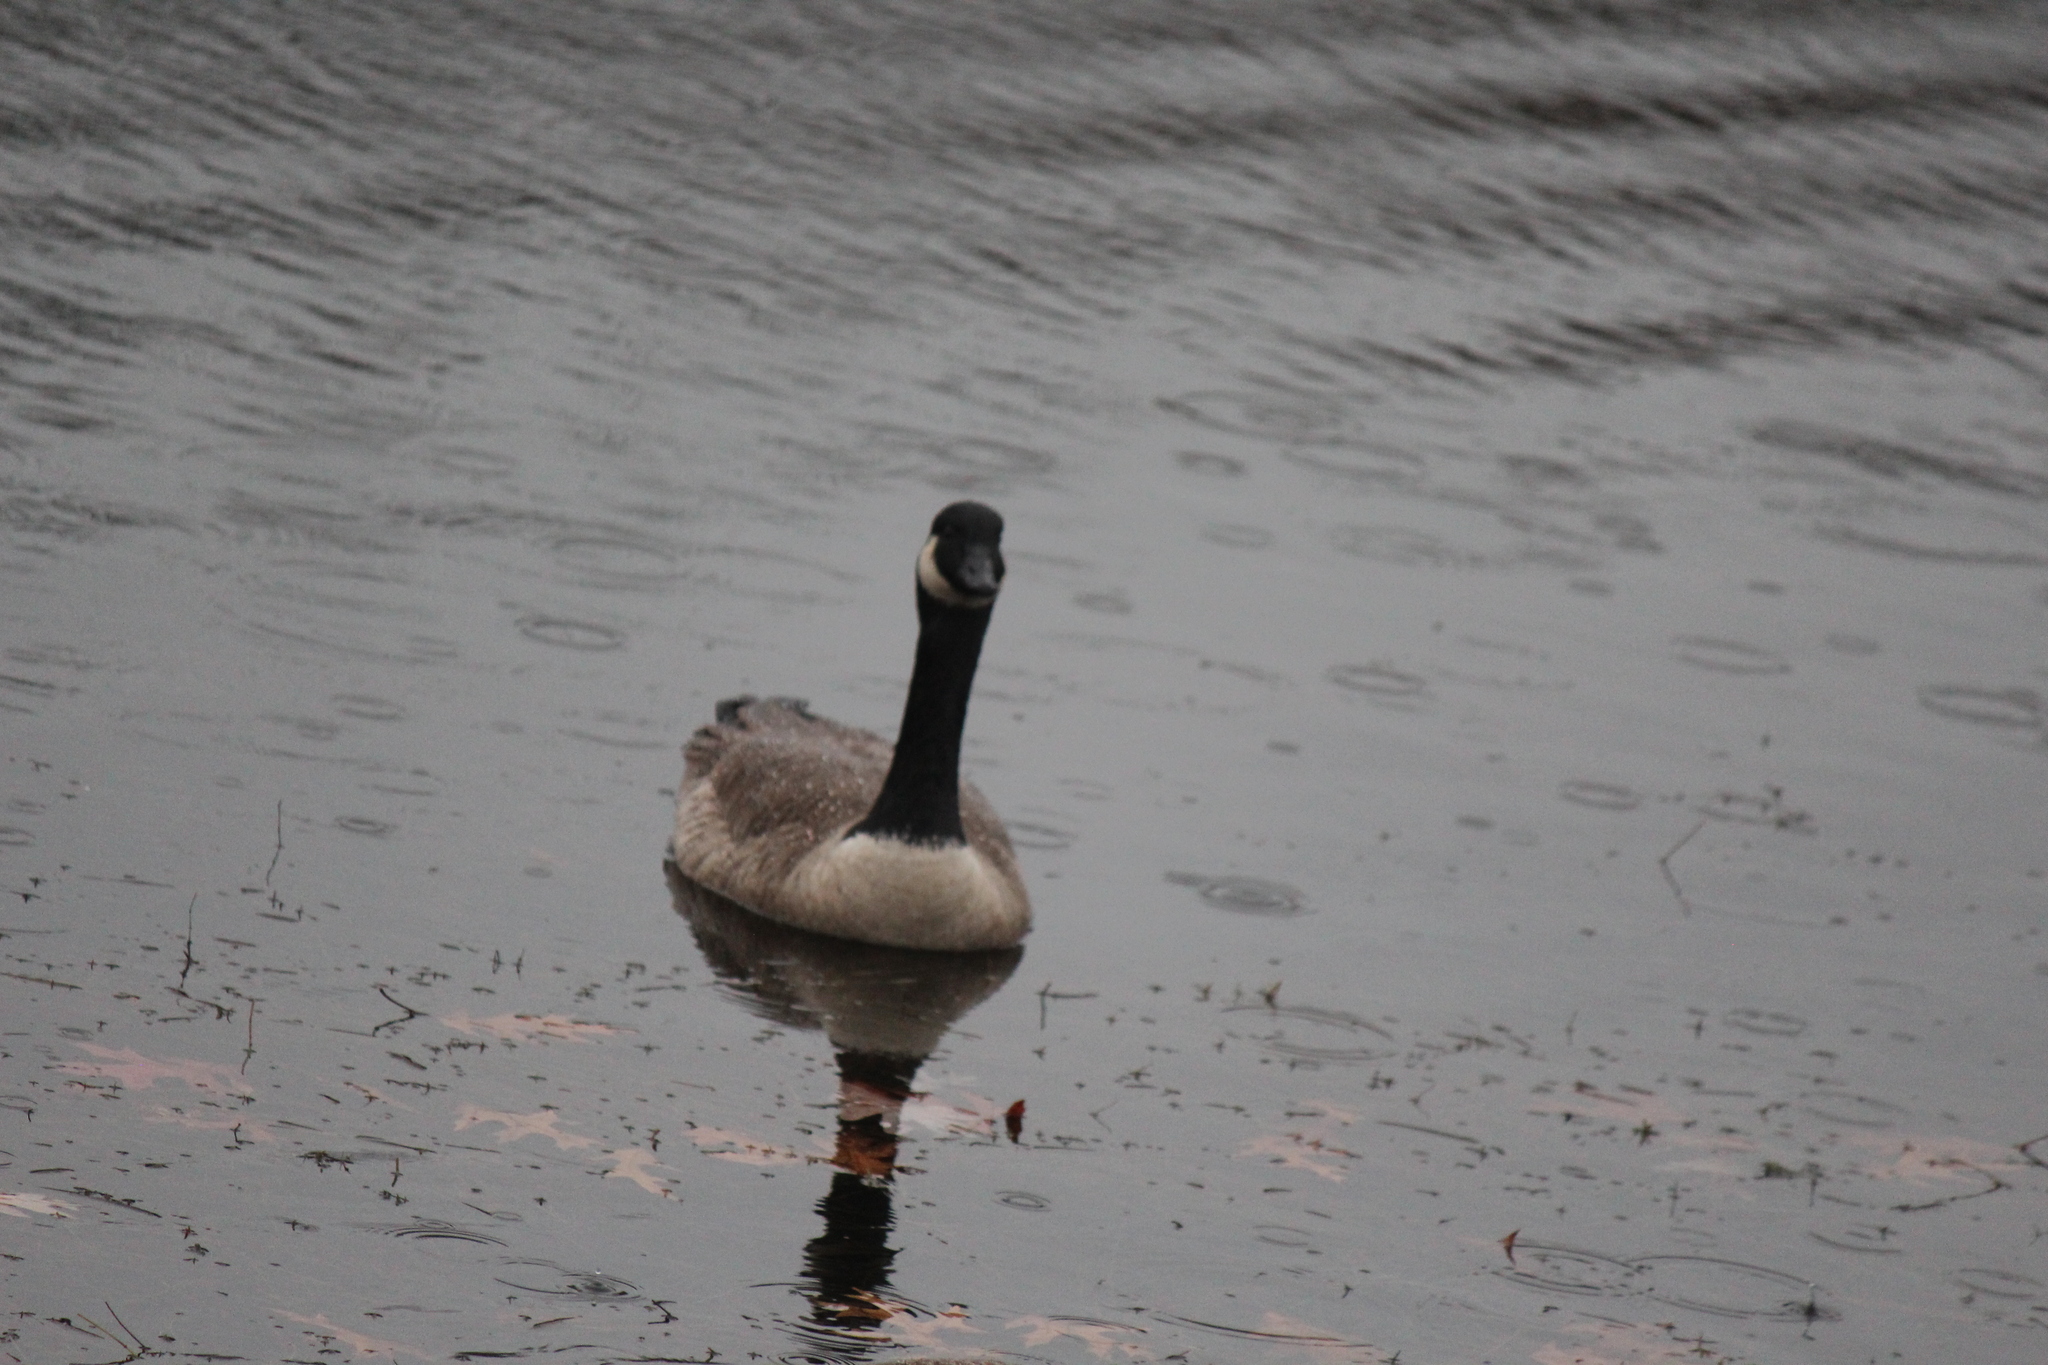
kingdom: Animalia
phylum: Chordata
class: Aves
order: Anseriformes
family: Anatidae
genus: Branta
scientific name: Branta canadensis
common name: Canada goose
